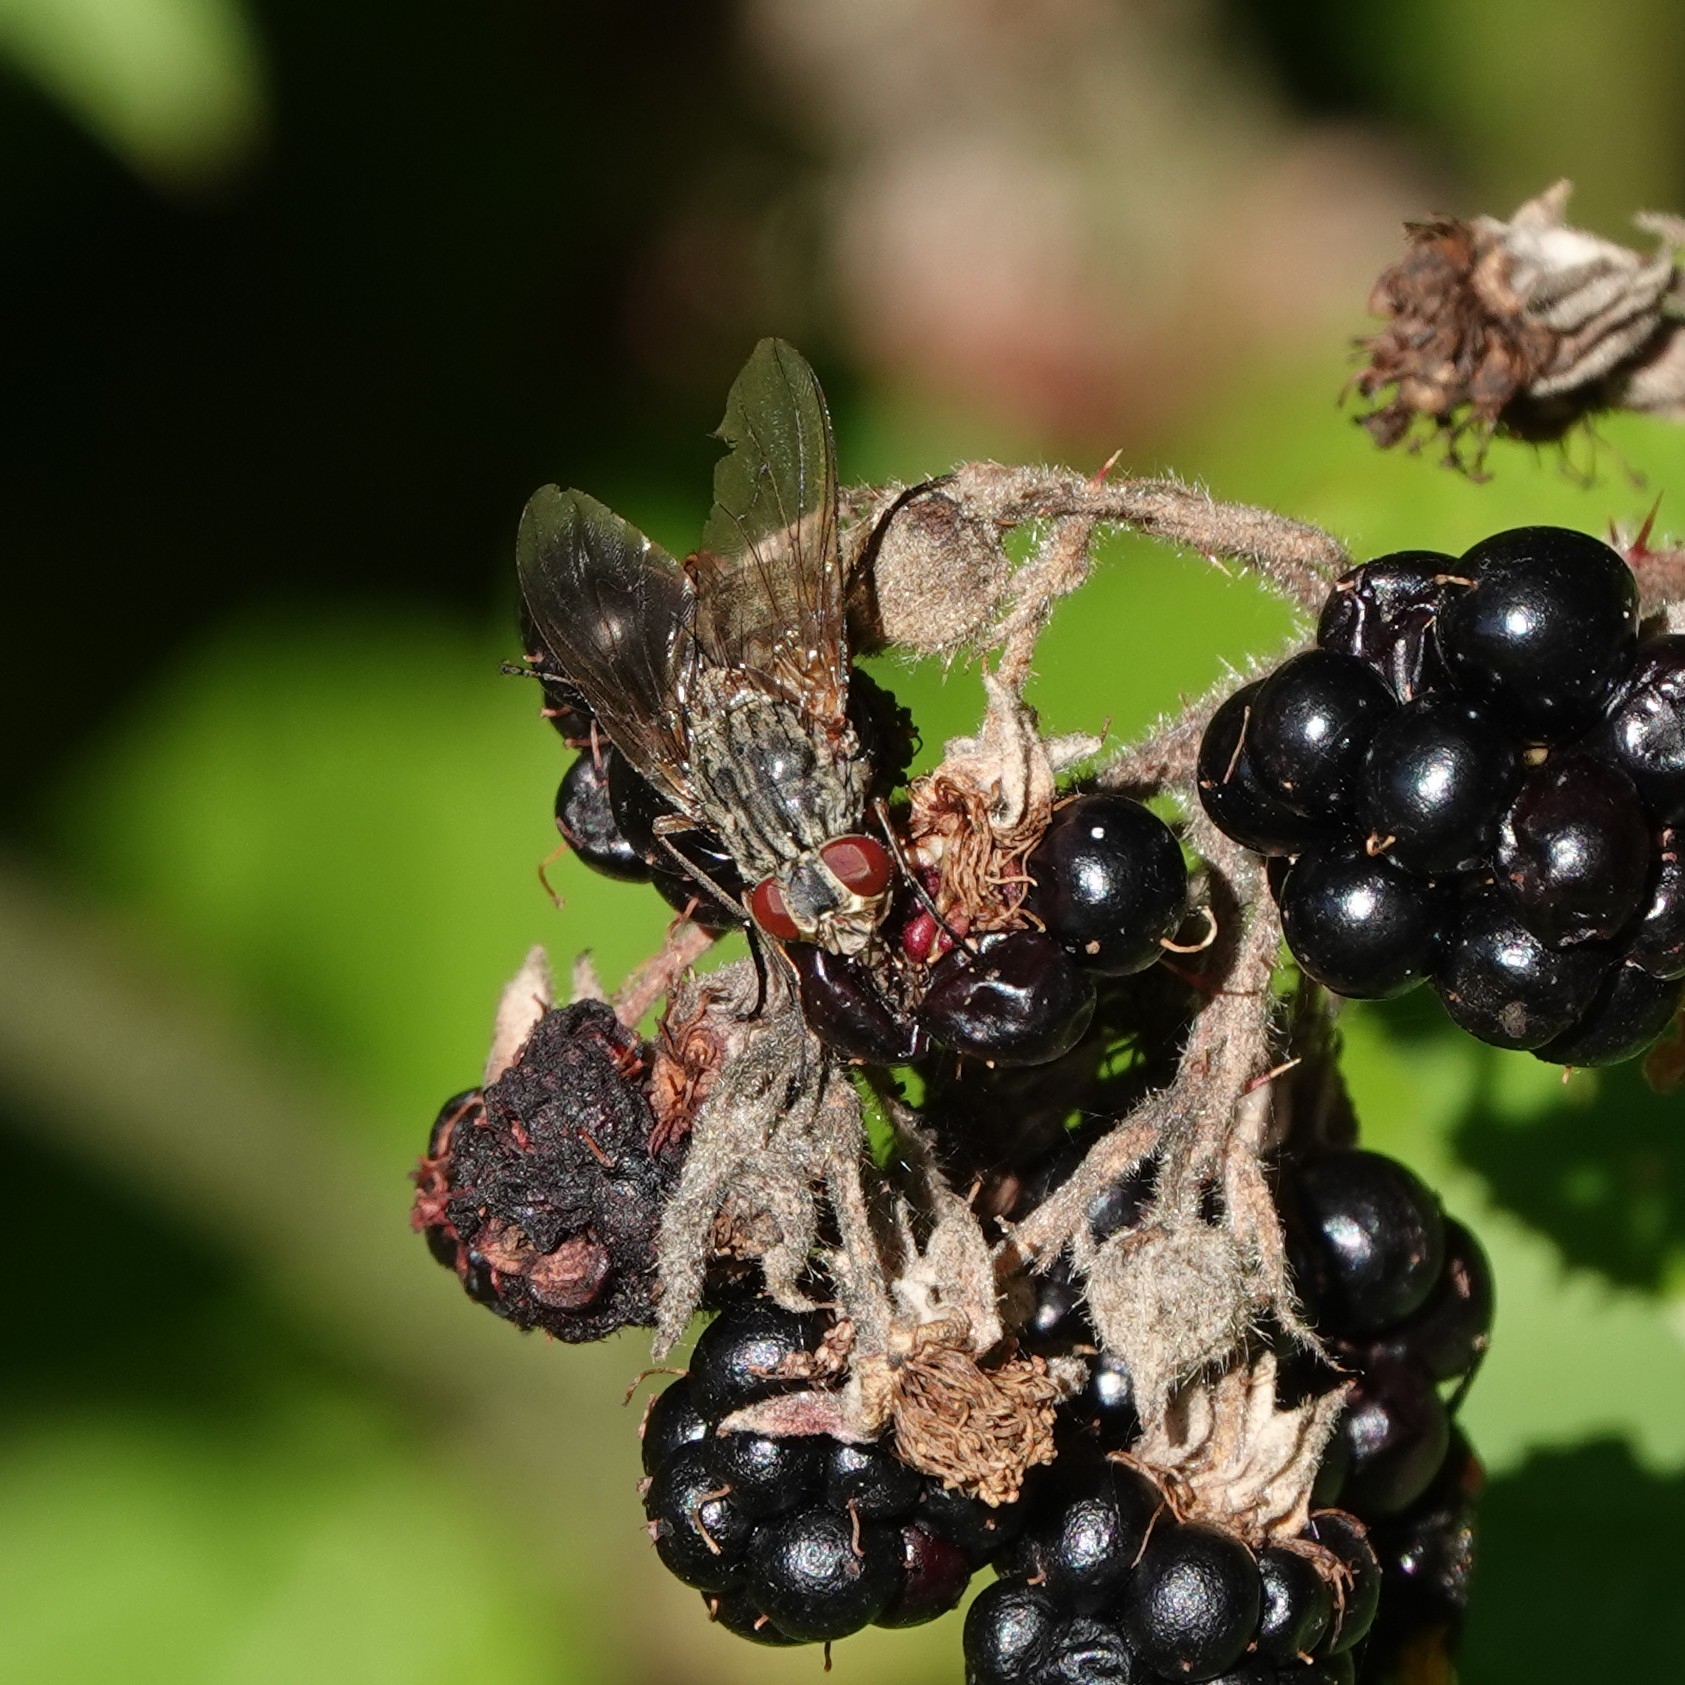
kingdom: Animalia
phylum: Arthropoda
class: Insecta
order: Diptera
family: Muscidae
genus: Phaonia
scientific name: Phaonia valida
